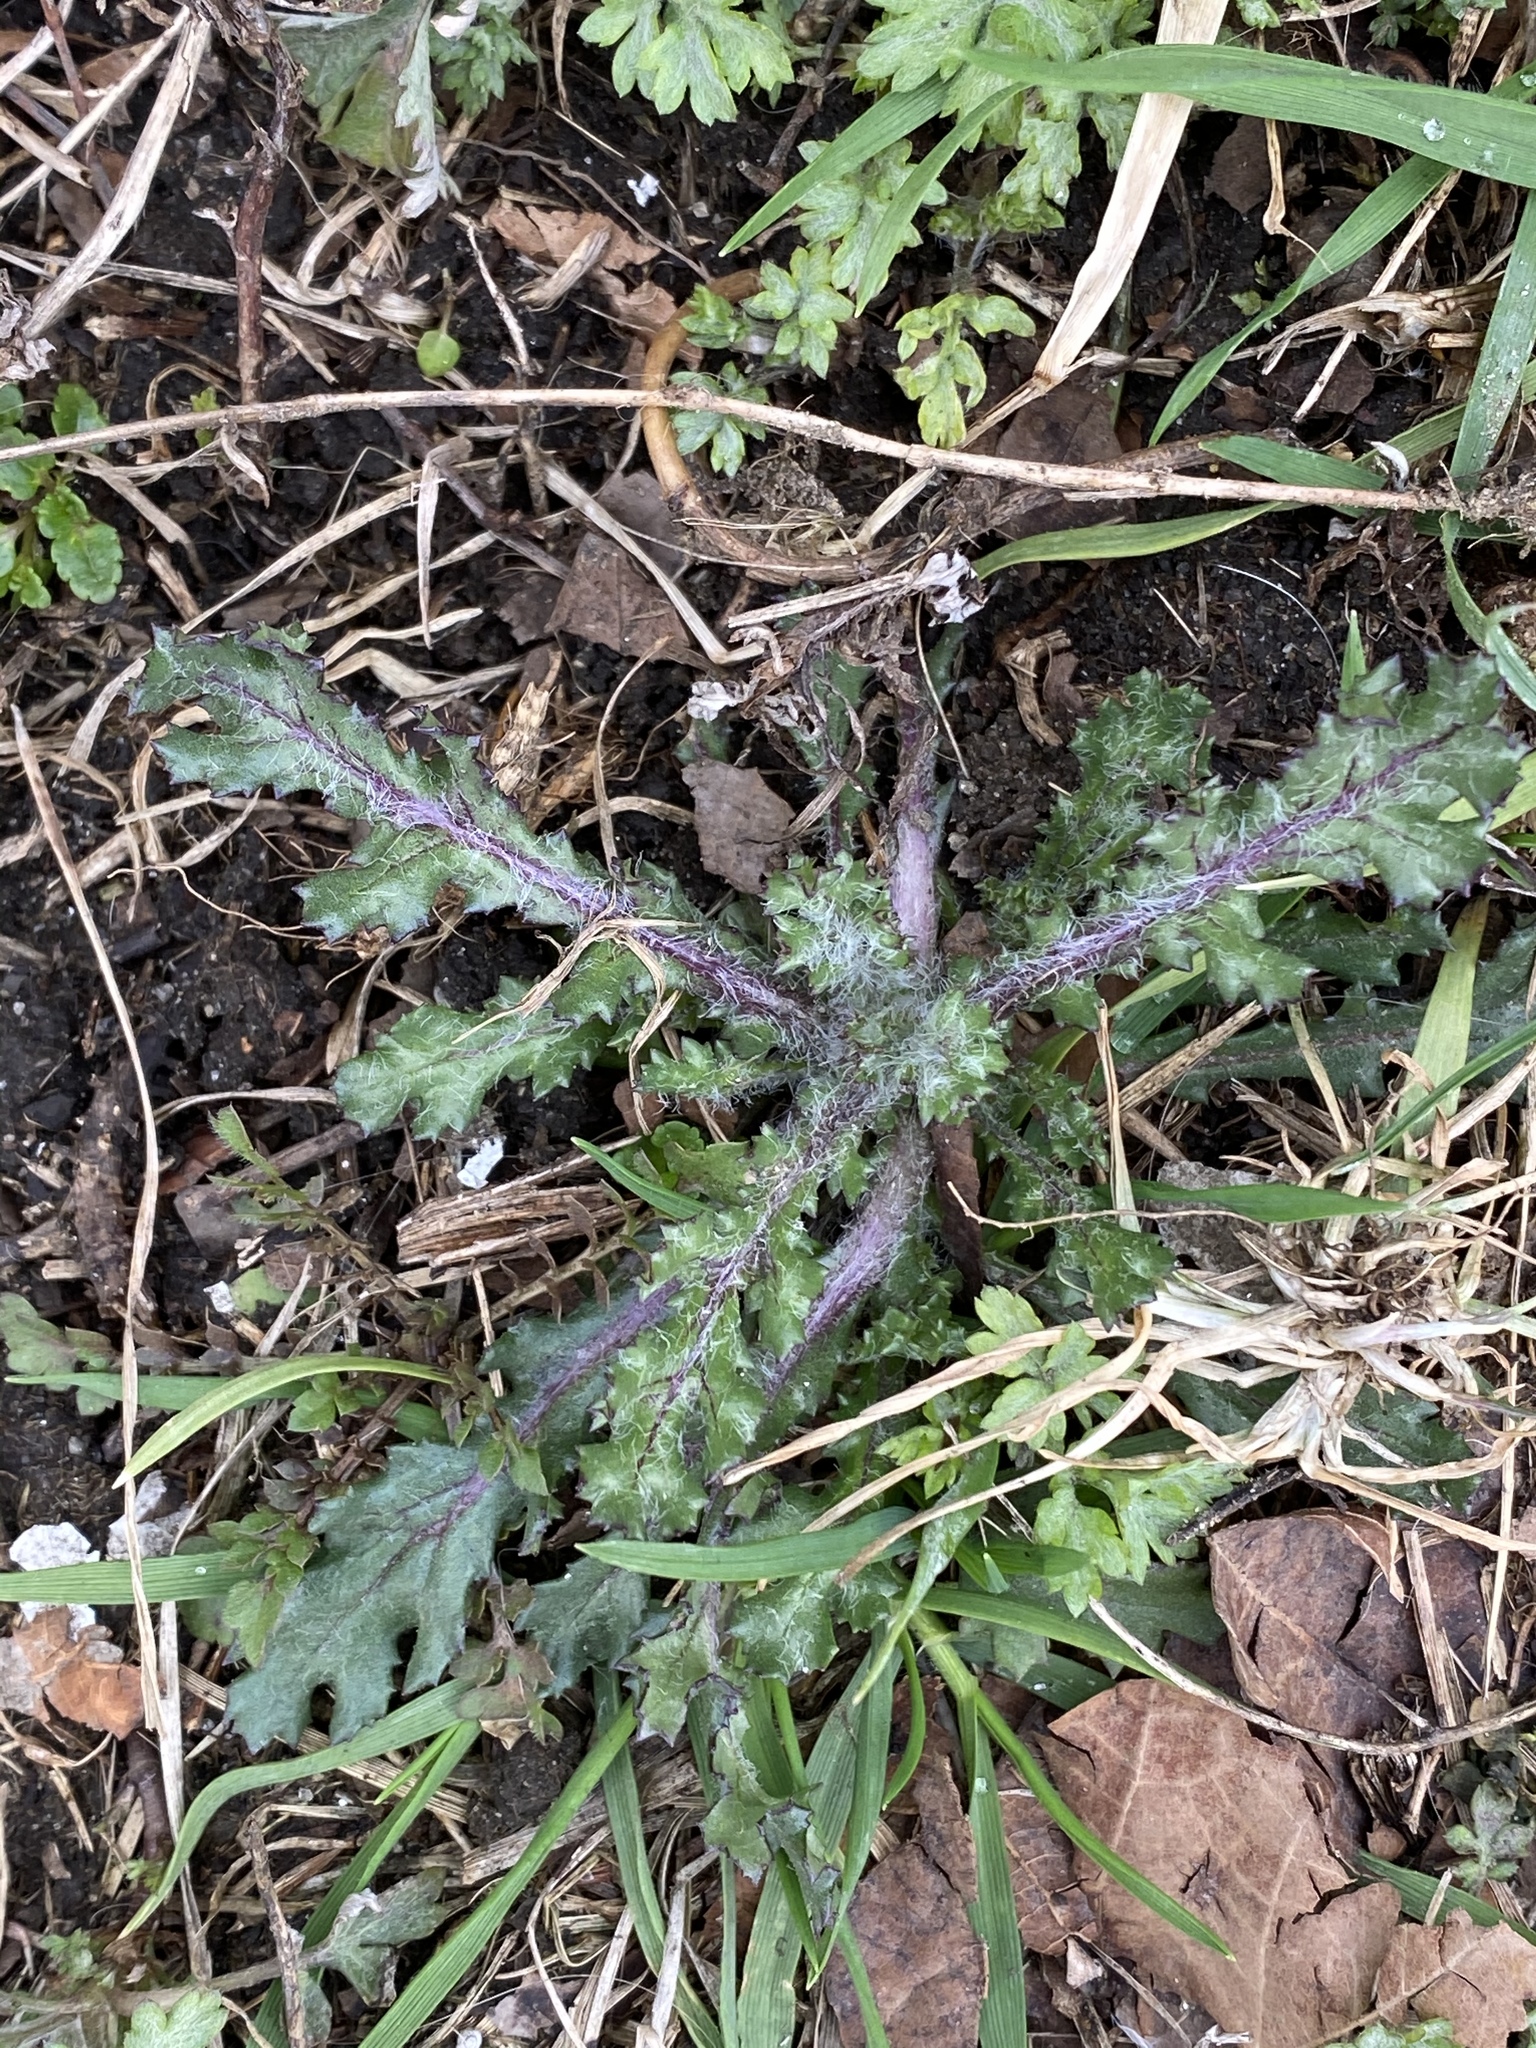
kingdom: Plantae
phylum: Tracheophyta
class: Magnoliopsida
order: Asterales
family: Asteraceae
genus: Senecio
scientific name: Senecio vulgaris
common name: Old-man-in-the-spring
